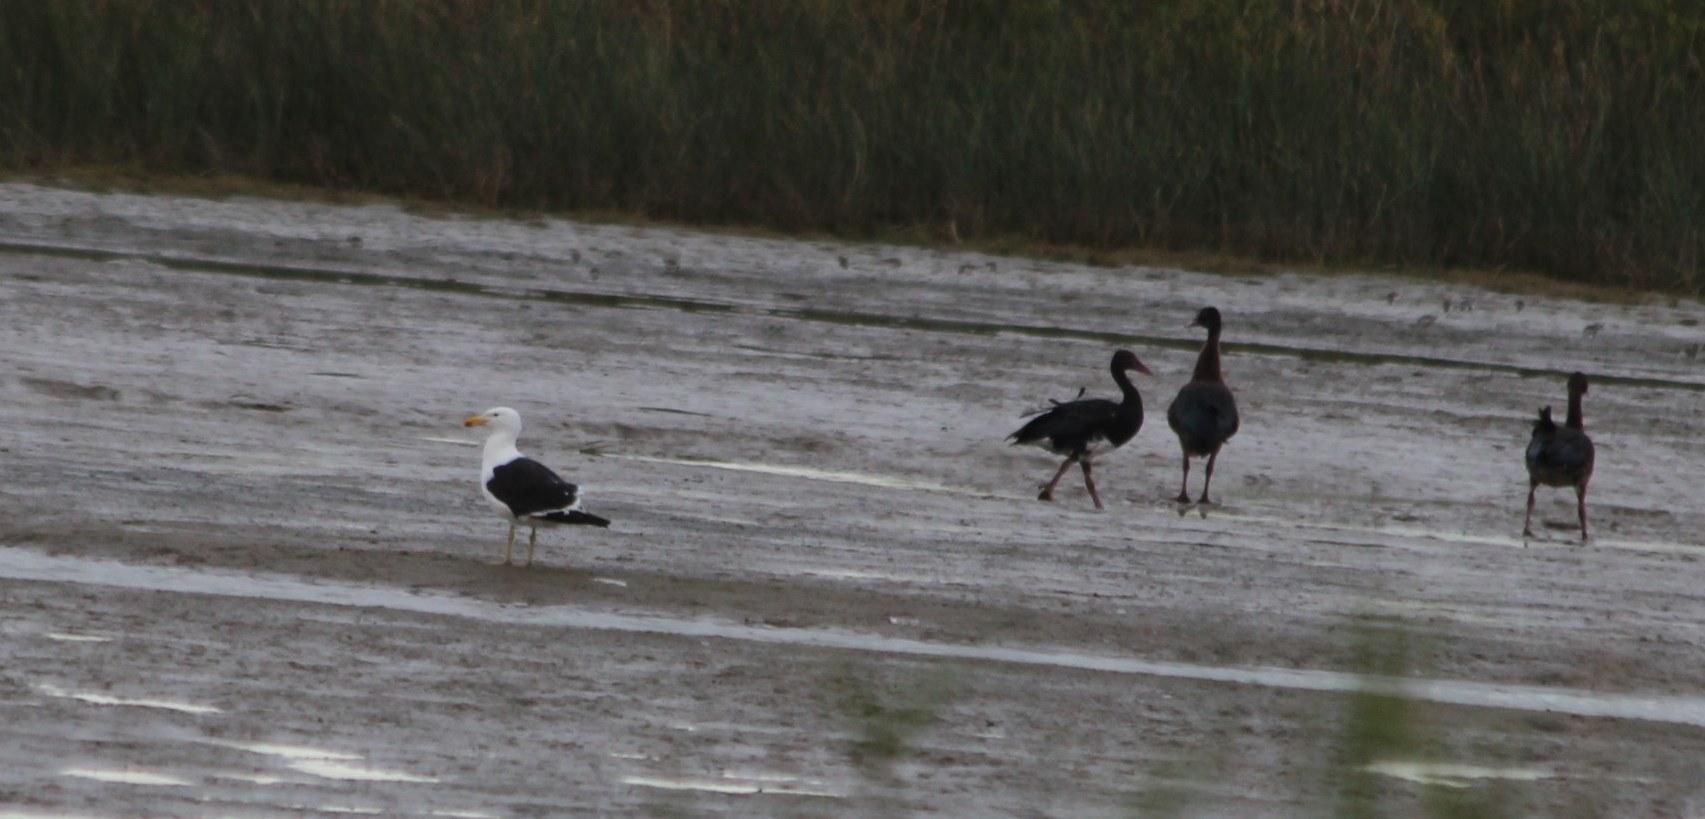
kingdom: Animalia
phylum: Chordata
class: Aves
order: Charadriiformes
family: Laridae
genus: Larus
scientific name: Larus dominicanus
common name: Kelp gull
